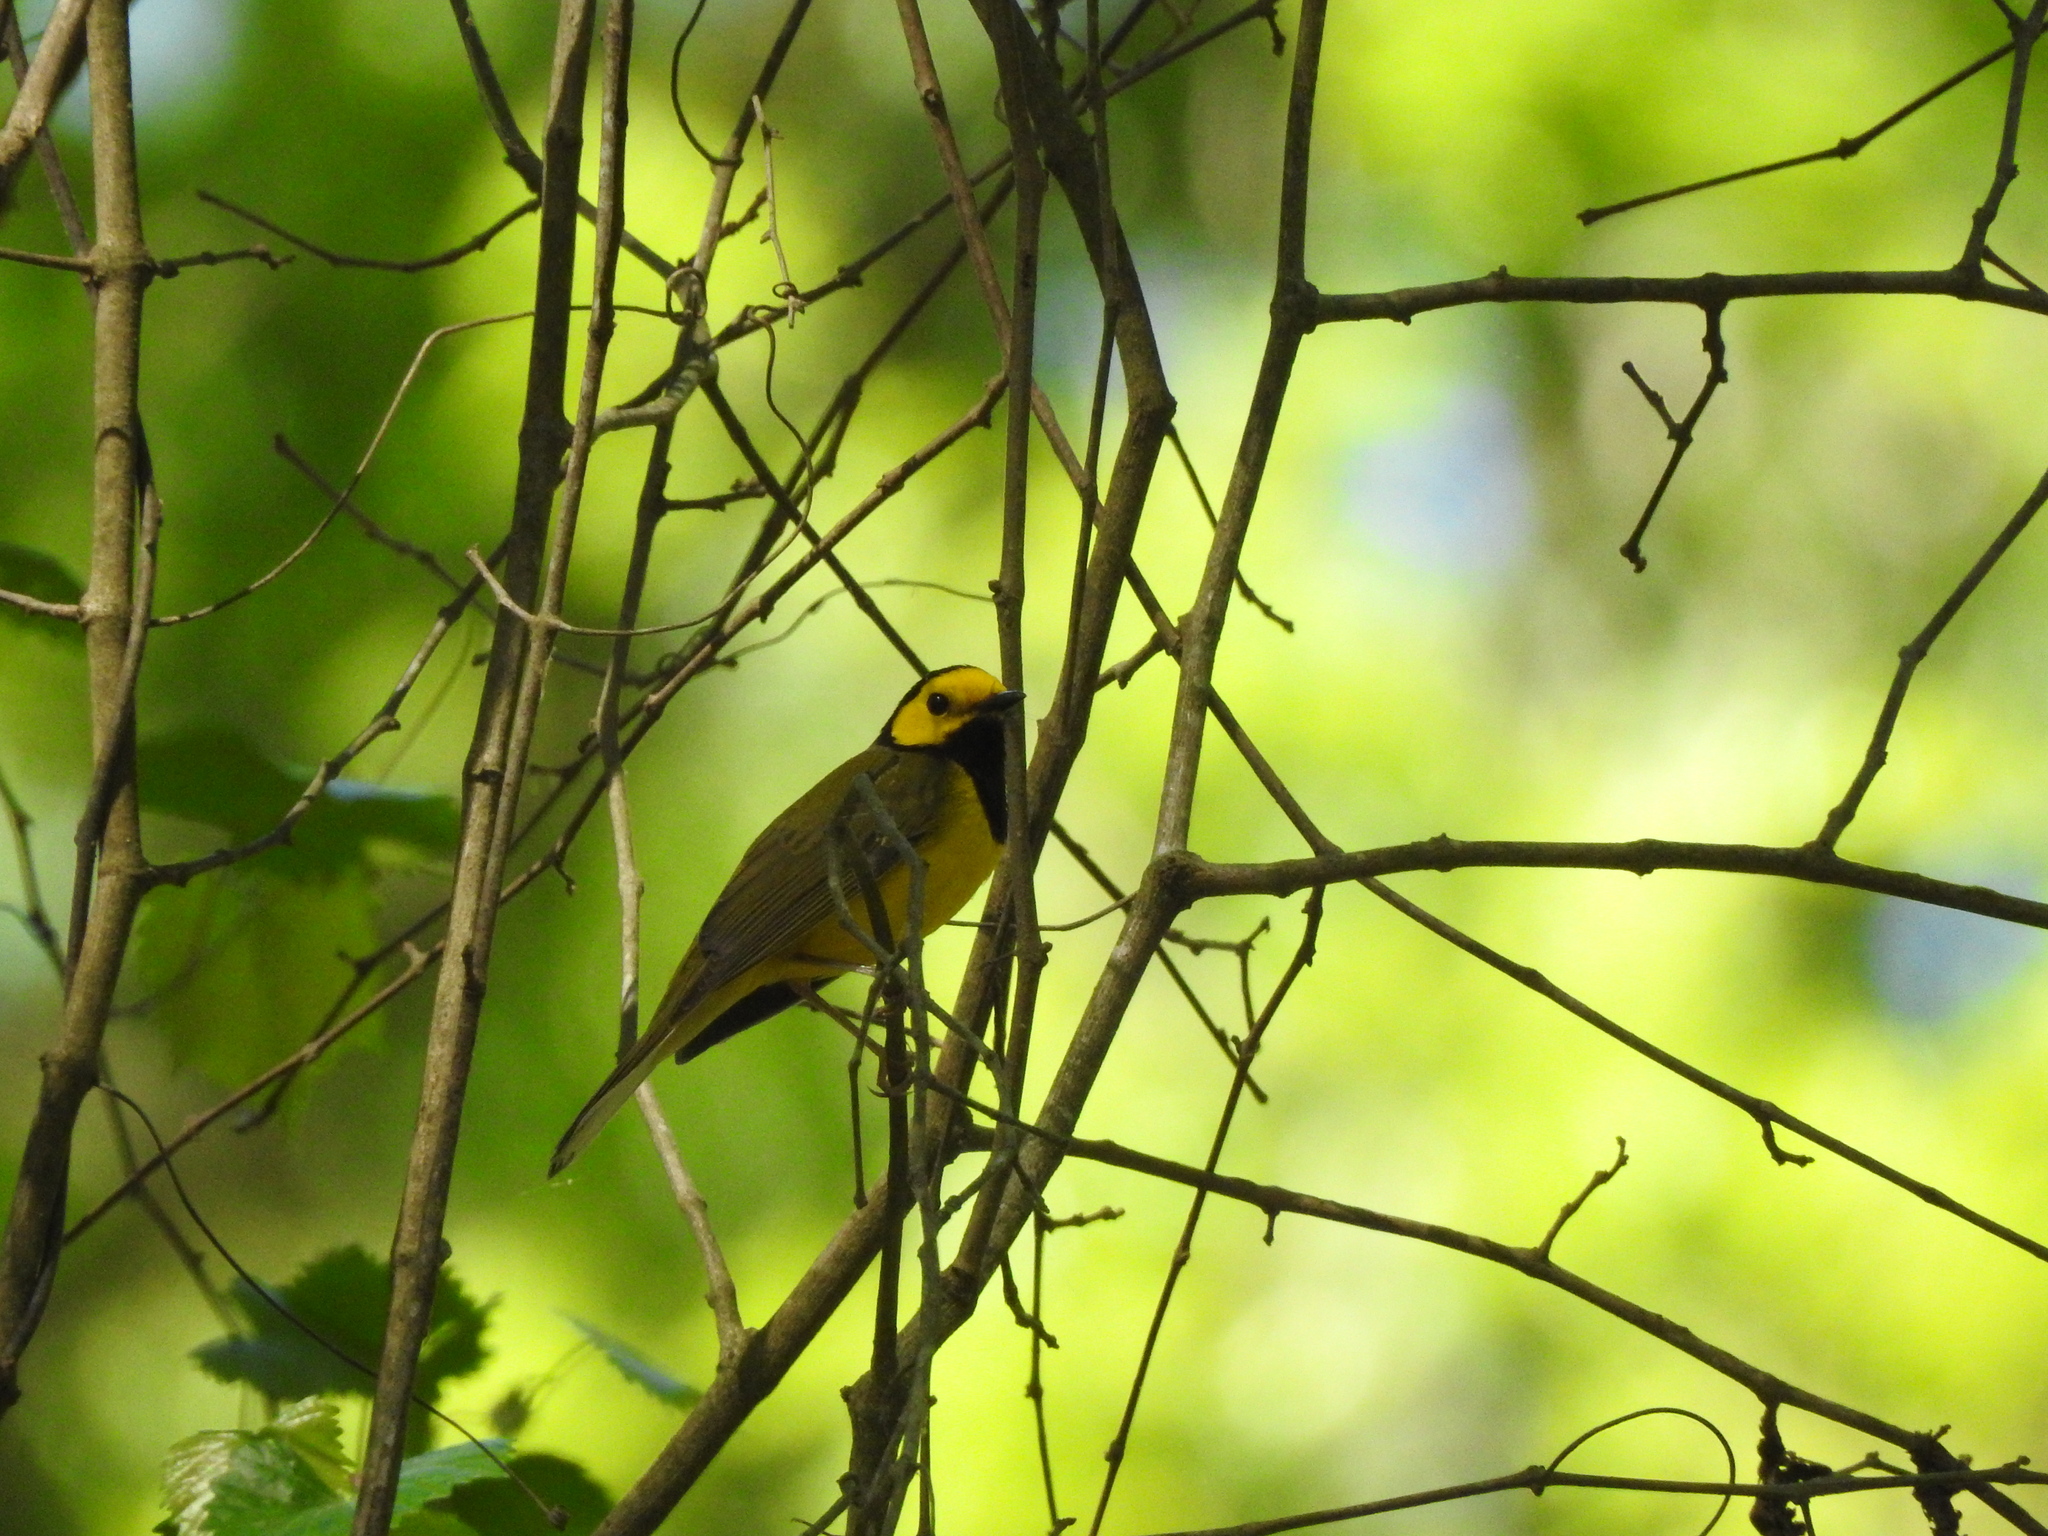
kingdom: Animalia
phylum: Chordata
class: Aves
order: Passeriformes
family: Parulidae
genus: Setophaga
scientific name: Setophaga citrina
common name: Hooded warbler
